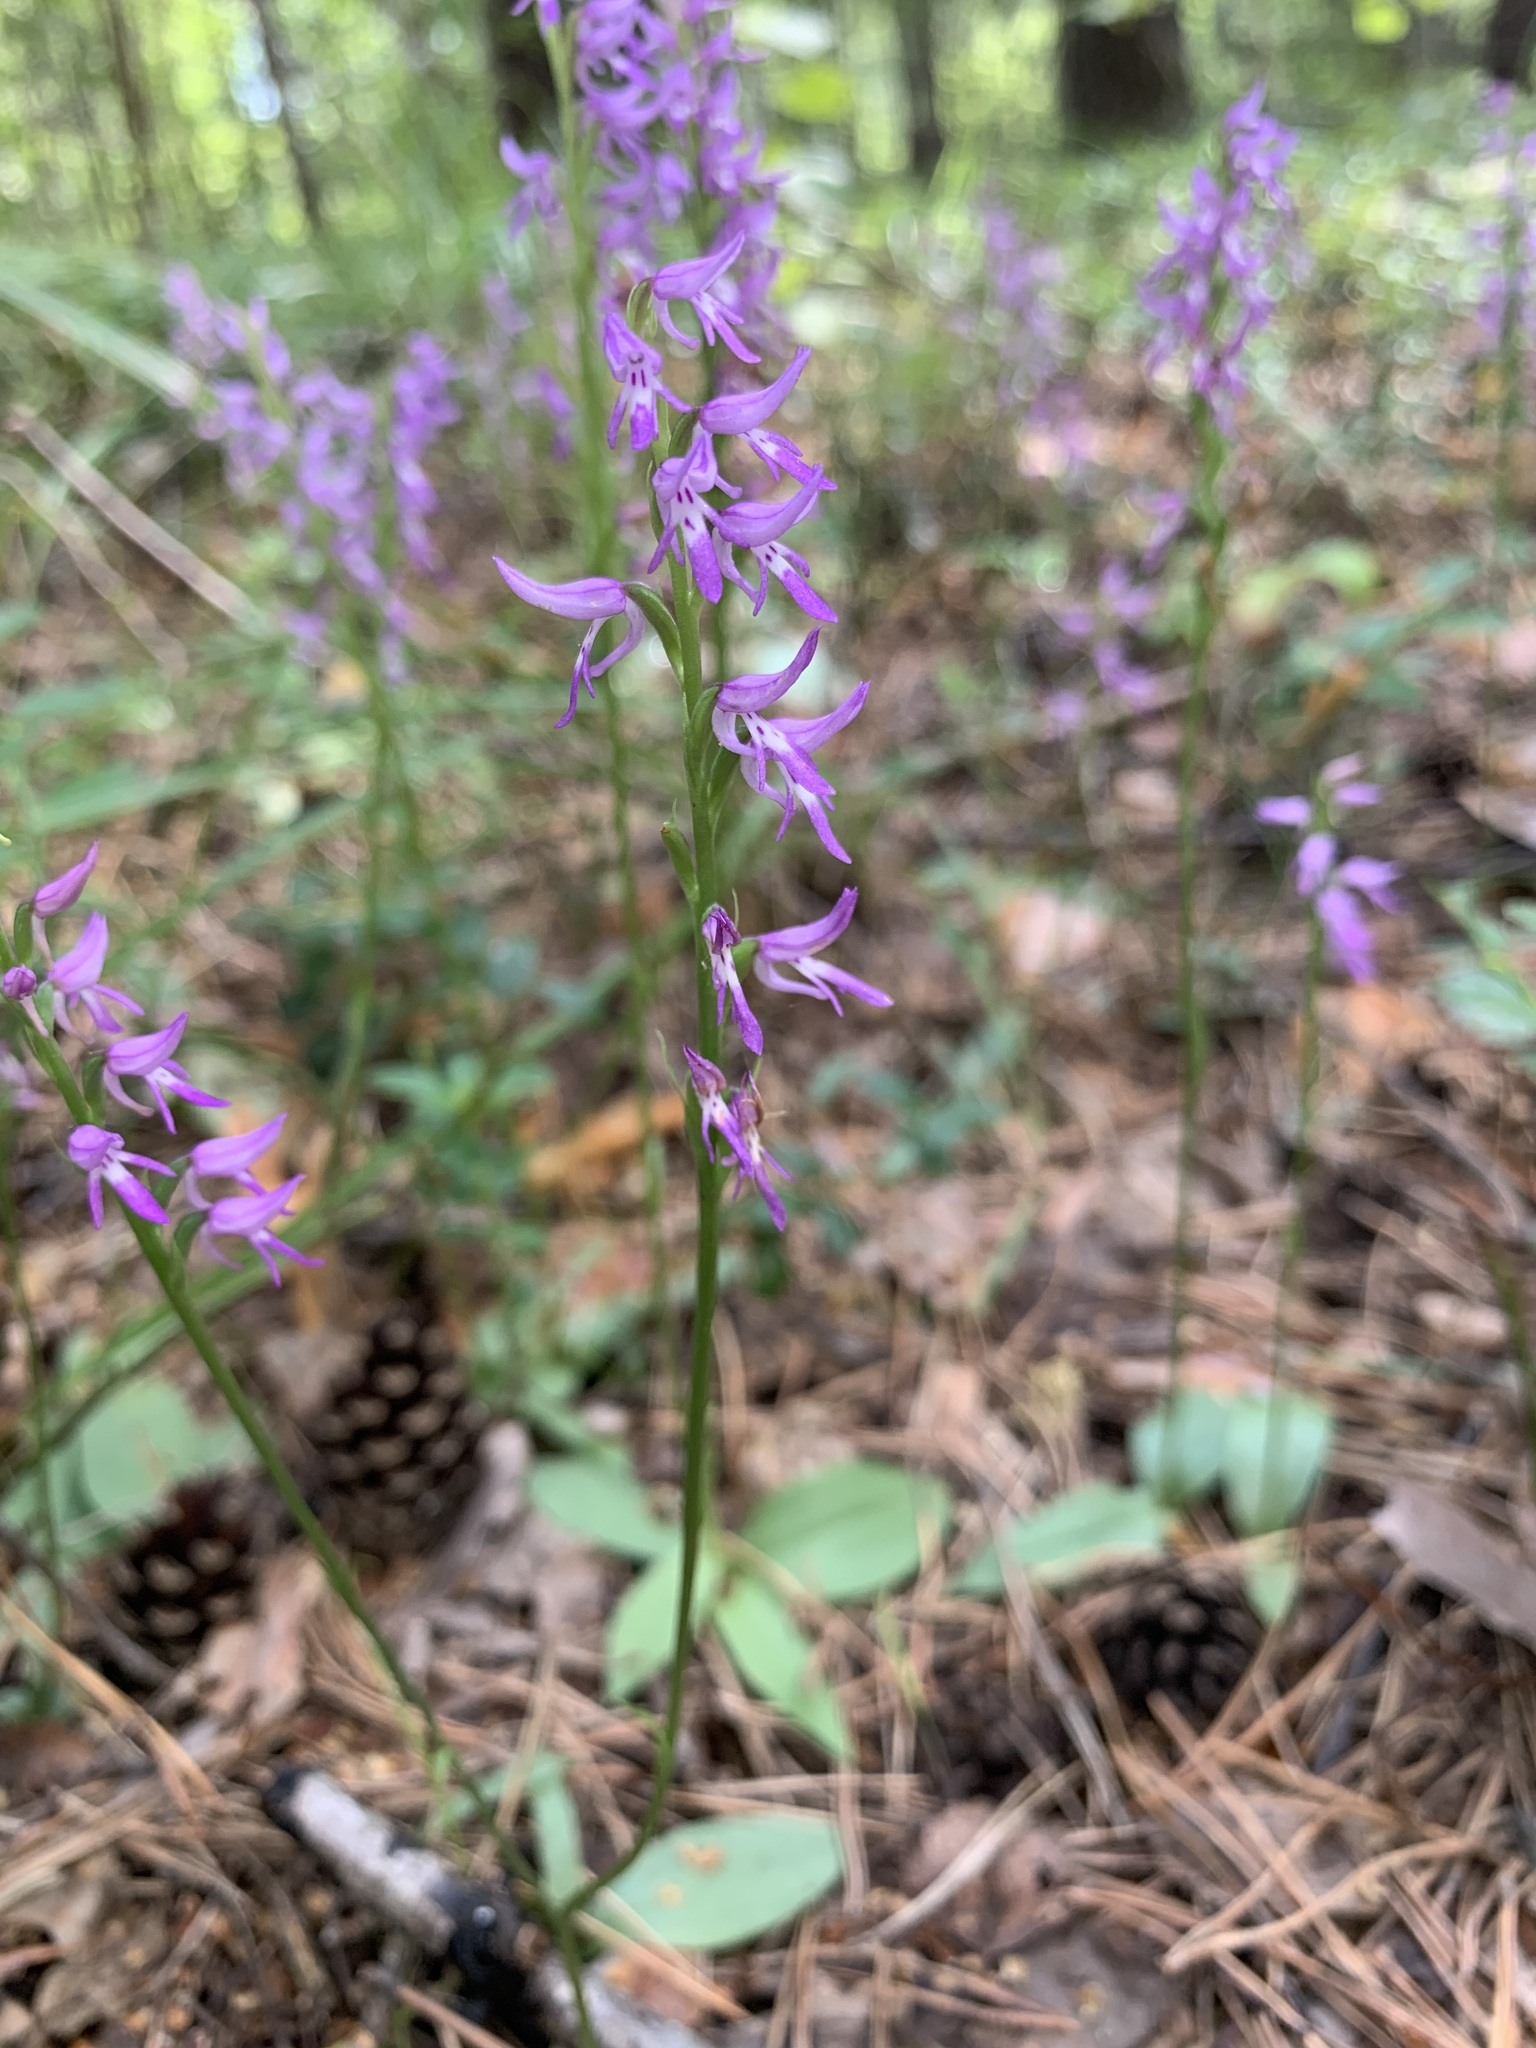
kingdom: Plantae
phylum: Tracheophyta
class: Liliopsida
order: Asparagales
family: Orchidaceae
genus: Hemipilia
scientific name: Hemipilia cucullata
